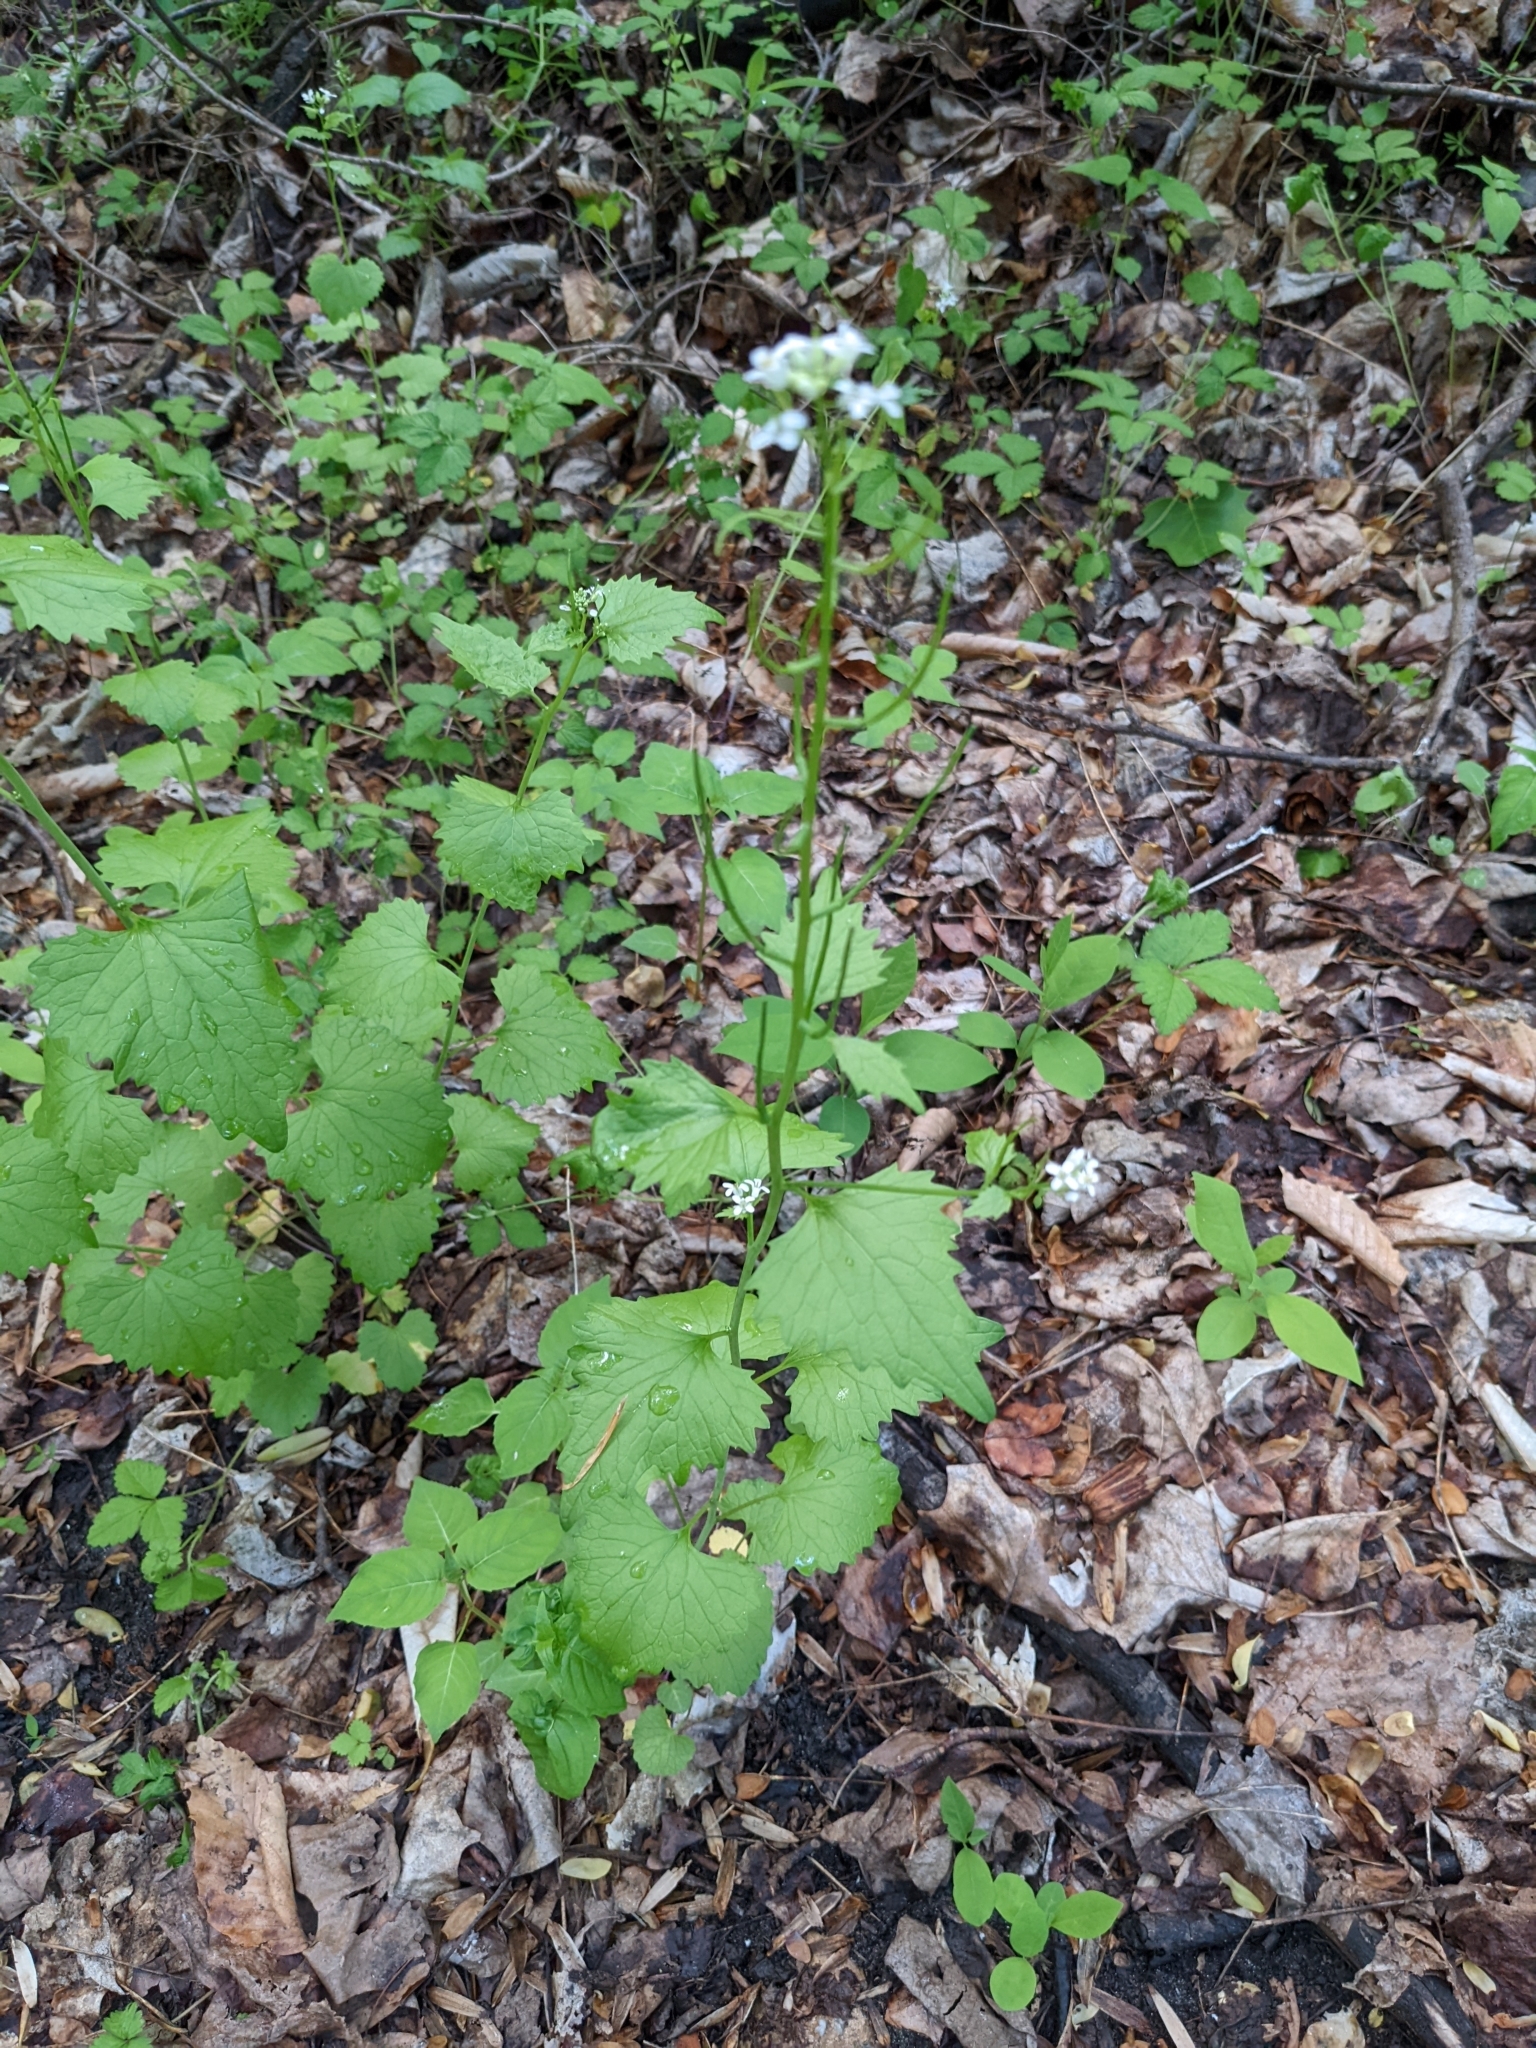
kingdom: Plantae
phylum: Tracheophyta
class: Magnoliopsida
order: Brassicales
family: Brassicaceae
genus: Alliaria
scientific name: Alliaria petiolata
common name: Garlic mustard
